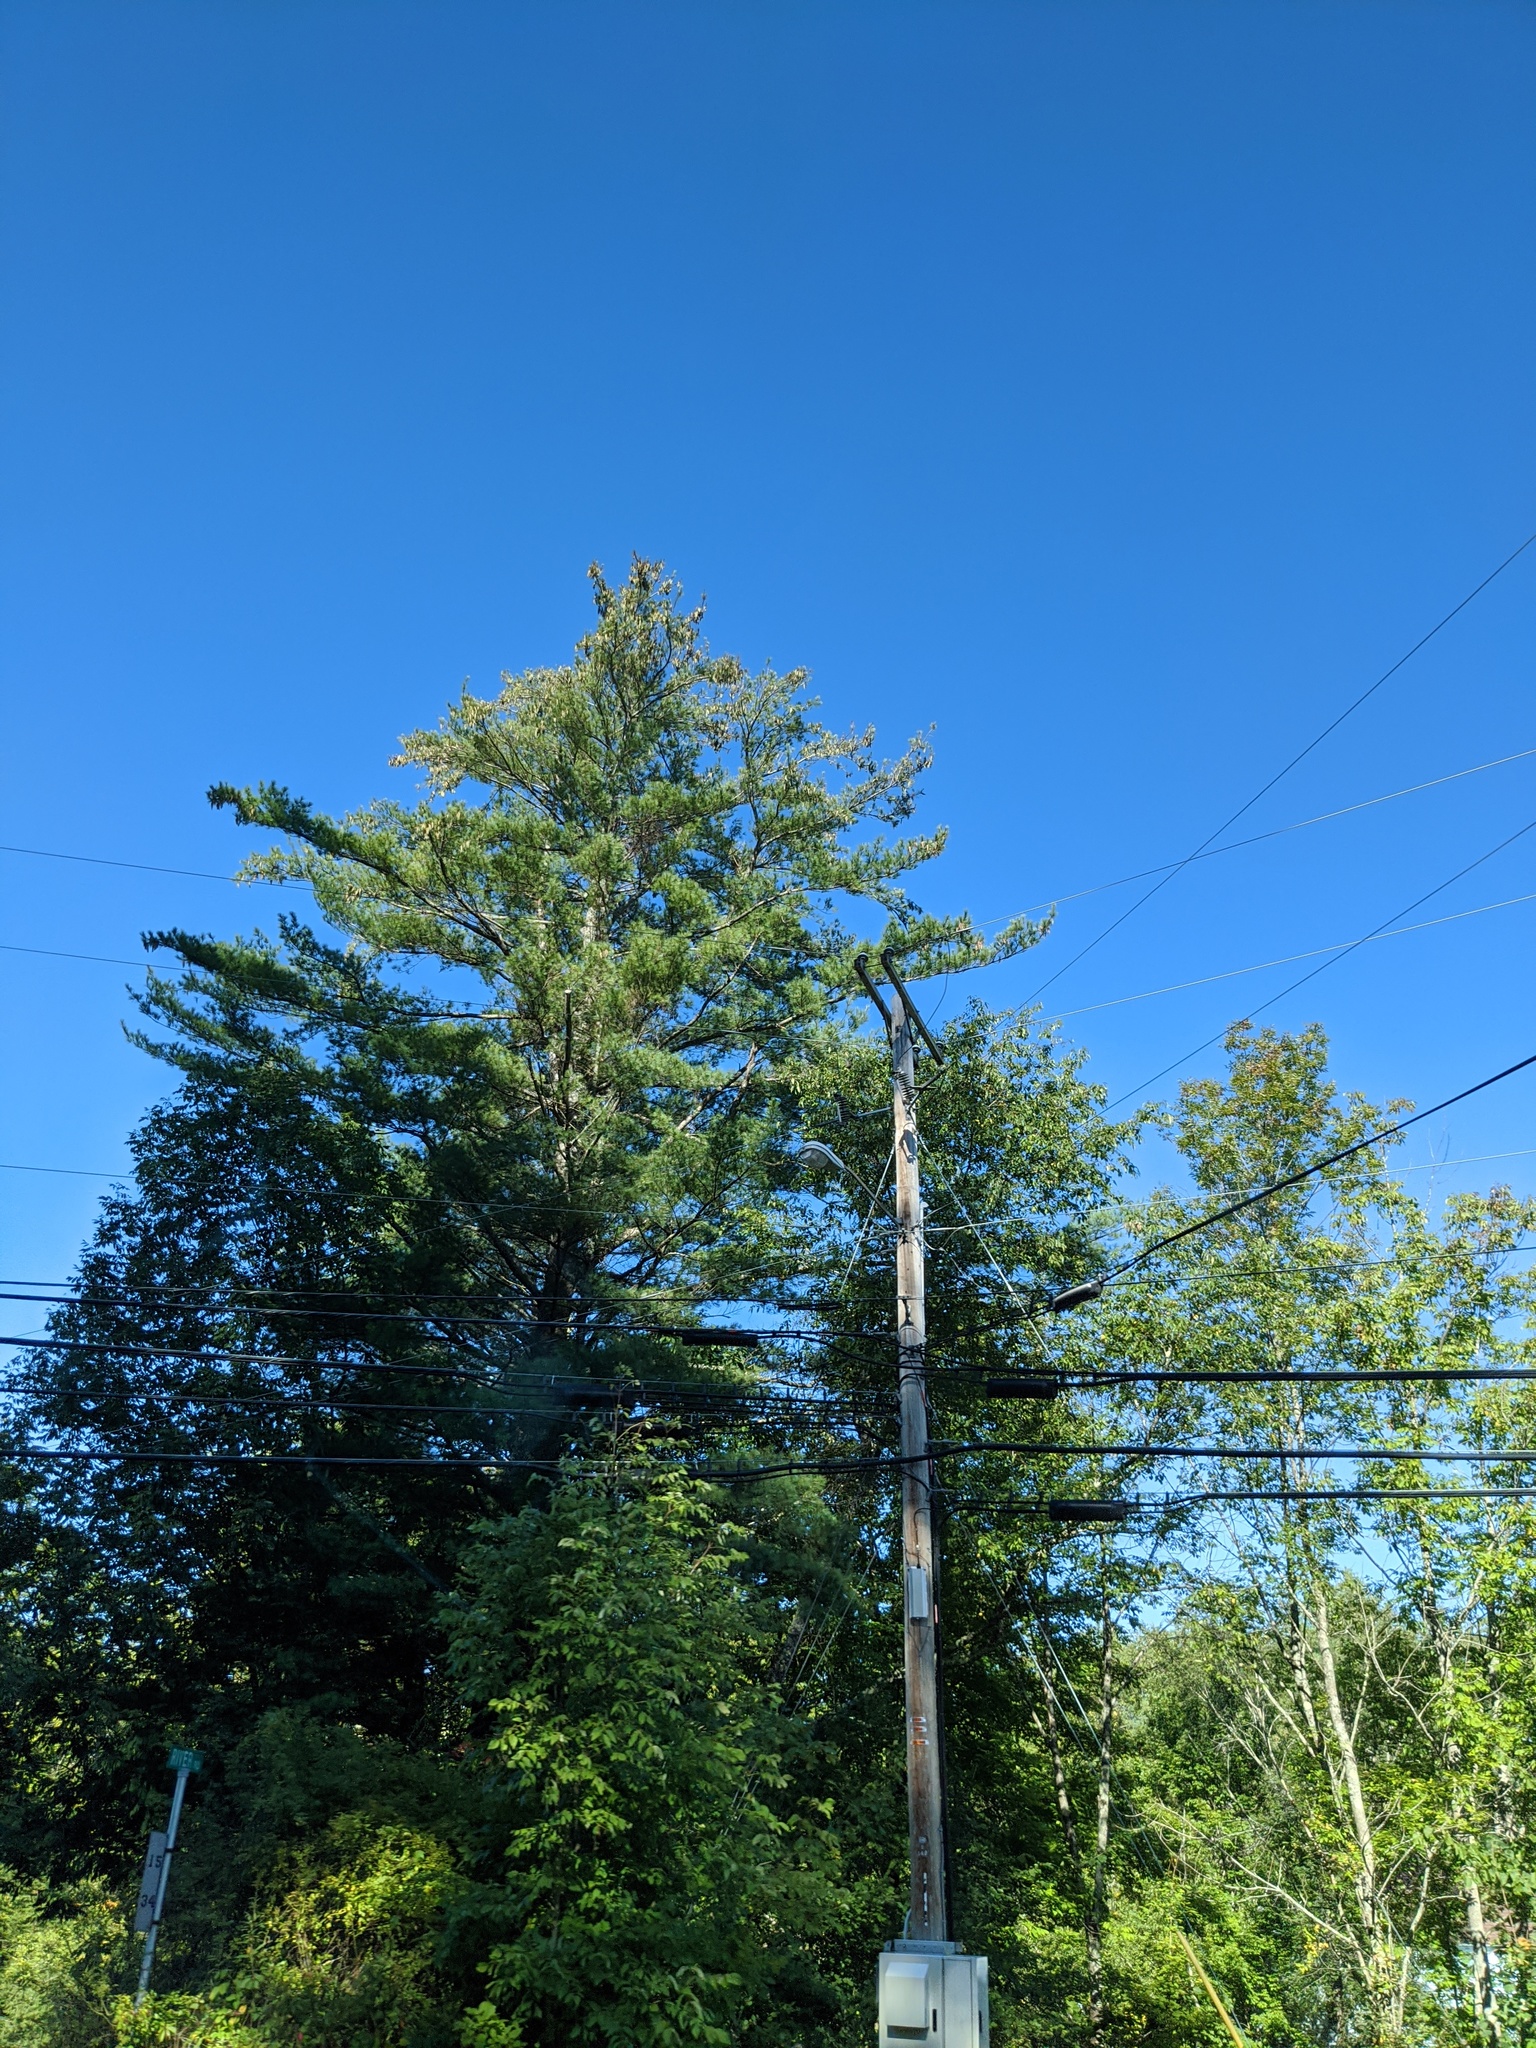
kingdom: Plantae
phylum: Tracheophyta
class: Pinopsida
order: Pinales
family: Pinaceae
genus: Pinus
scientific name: Pinus strobus
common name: Weymouth pine
